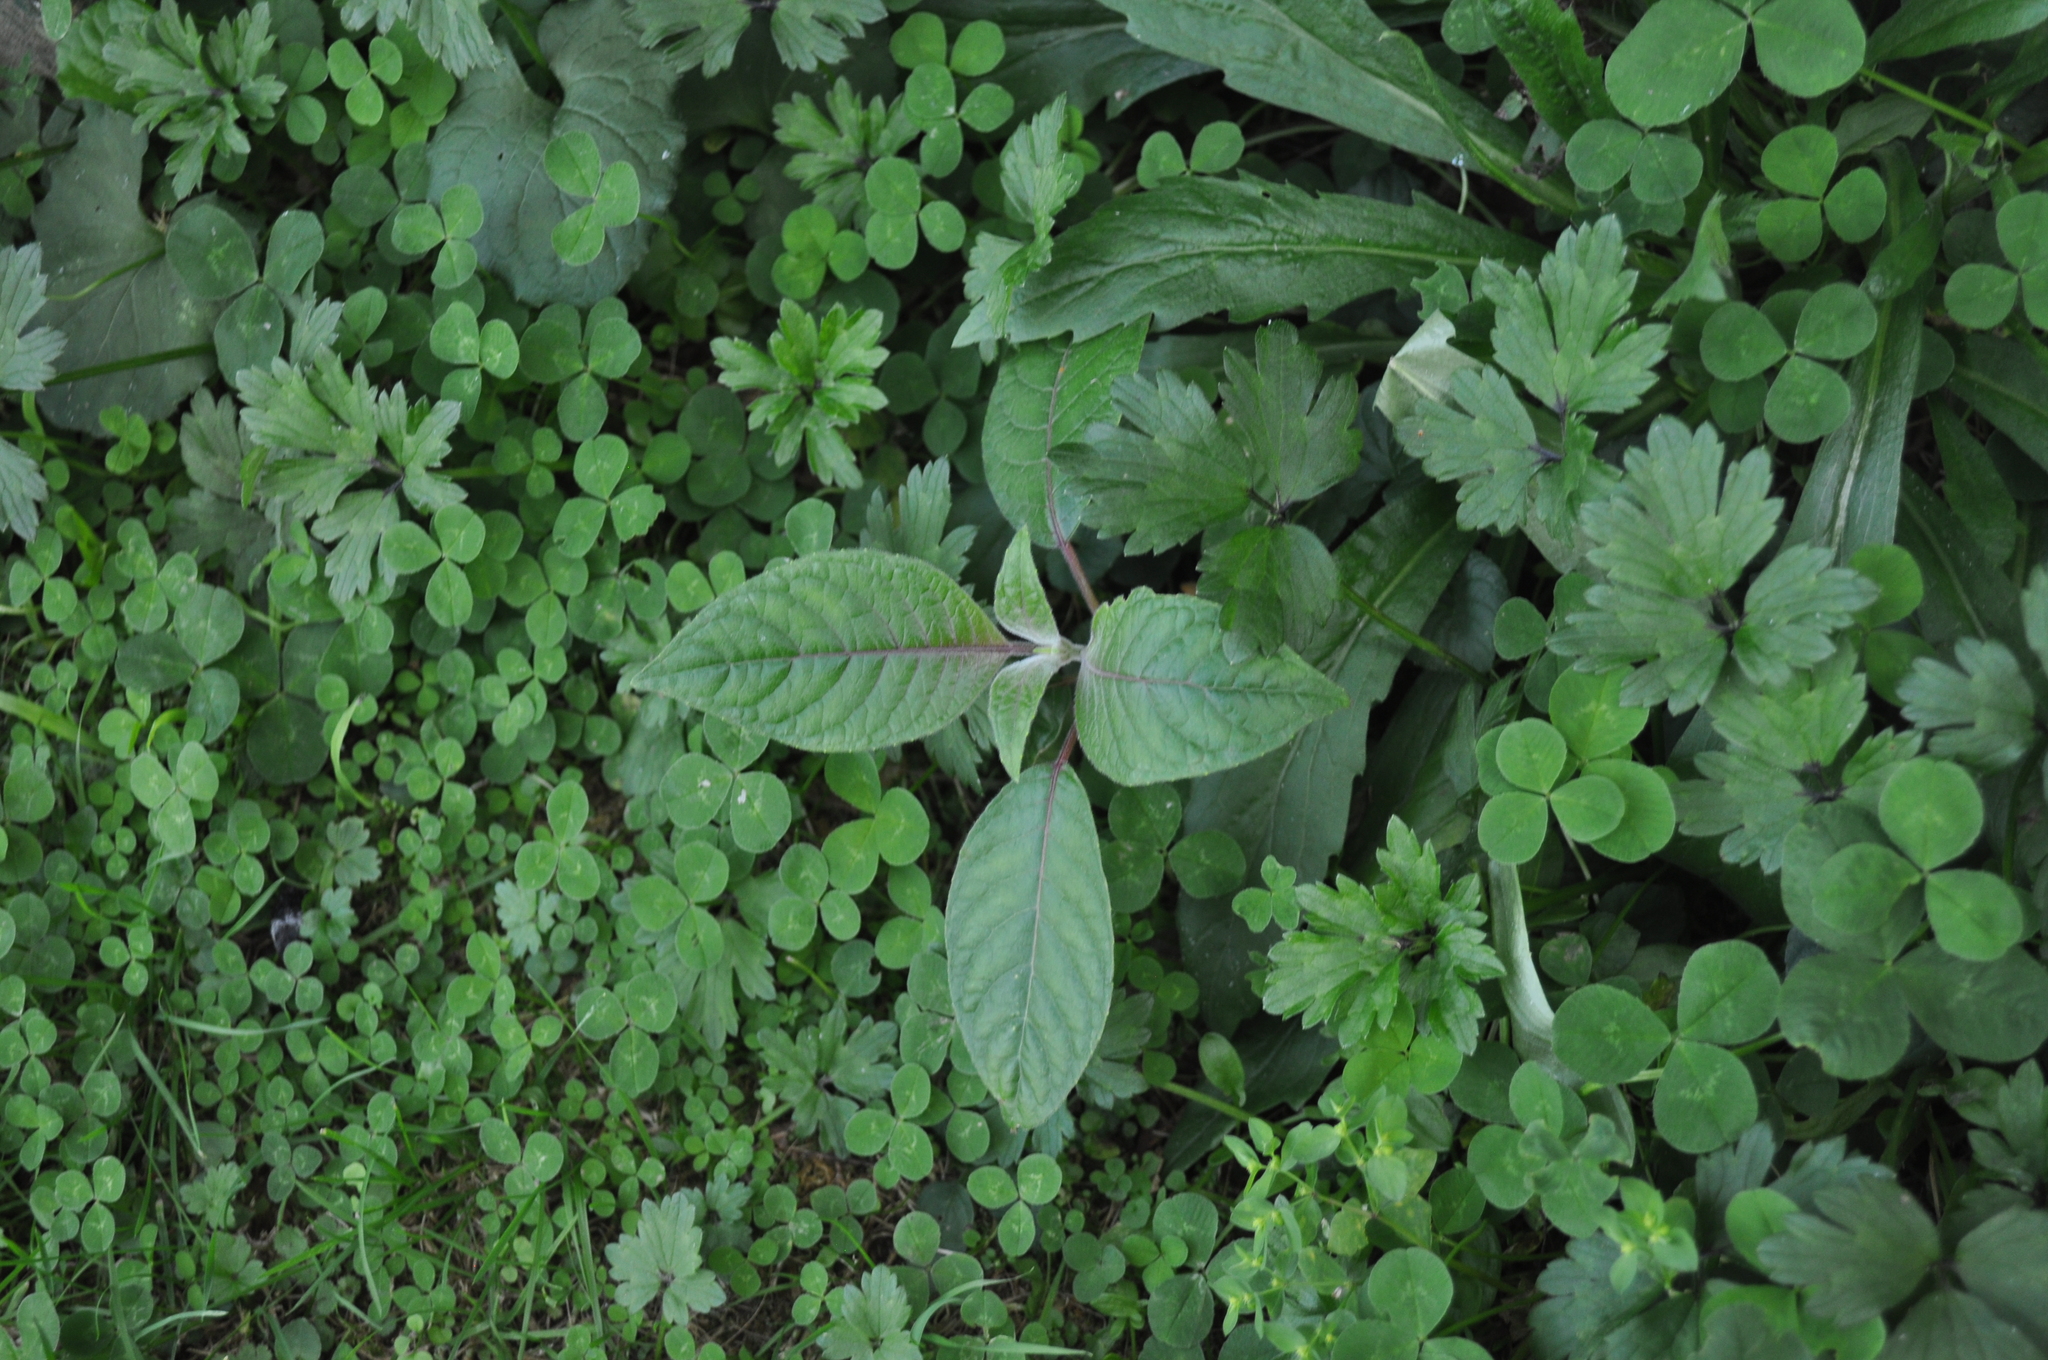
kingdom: Plantae
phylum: Tracheophyta
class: Magnoliopsida
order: Myrtales
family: Onagraceae
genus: Fuchsia
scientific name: Fuchsia boliviana
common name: Bolivian fuchsia
